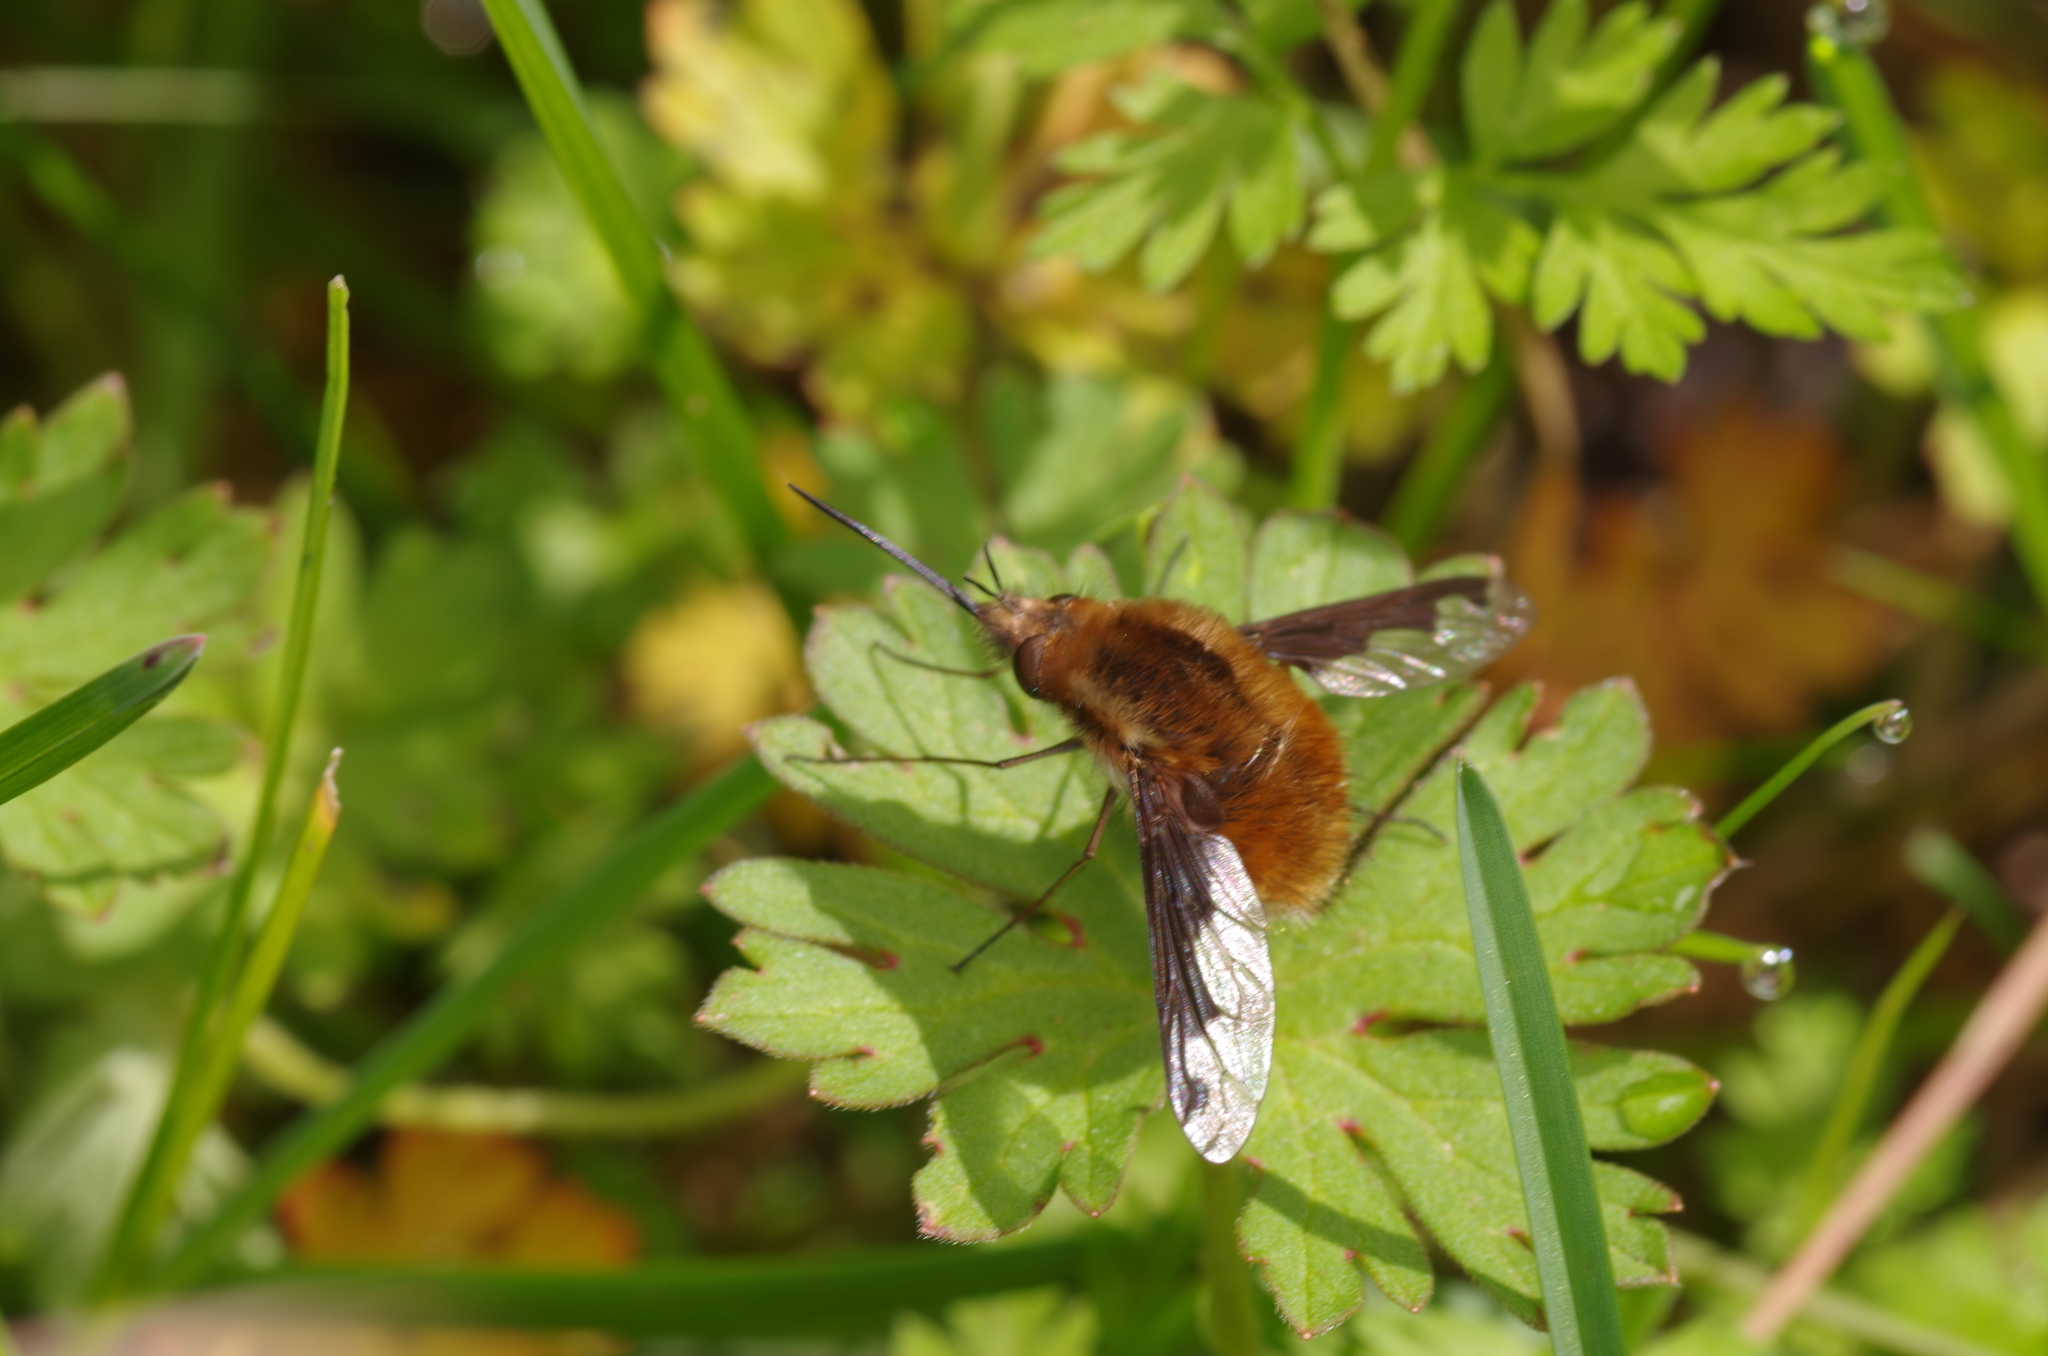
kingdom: Animalia
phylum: Arthropoda
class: Insecta
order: Diptera
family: Bombyliidae
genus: Bombylius
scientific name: Bombylius major
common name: Bee fly
